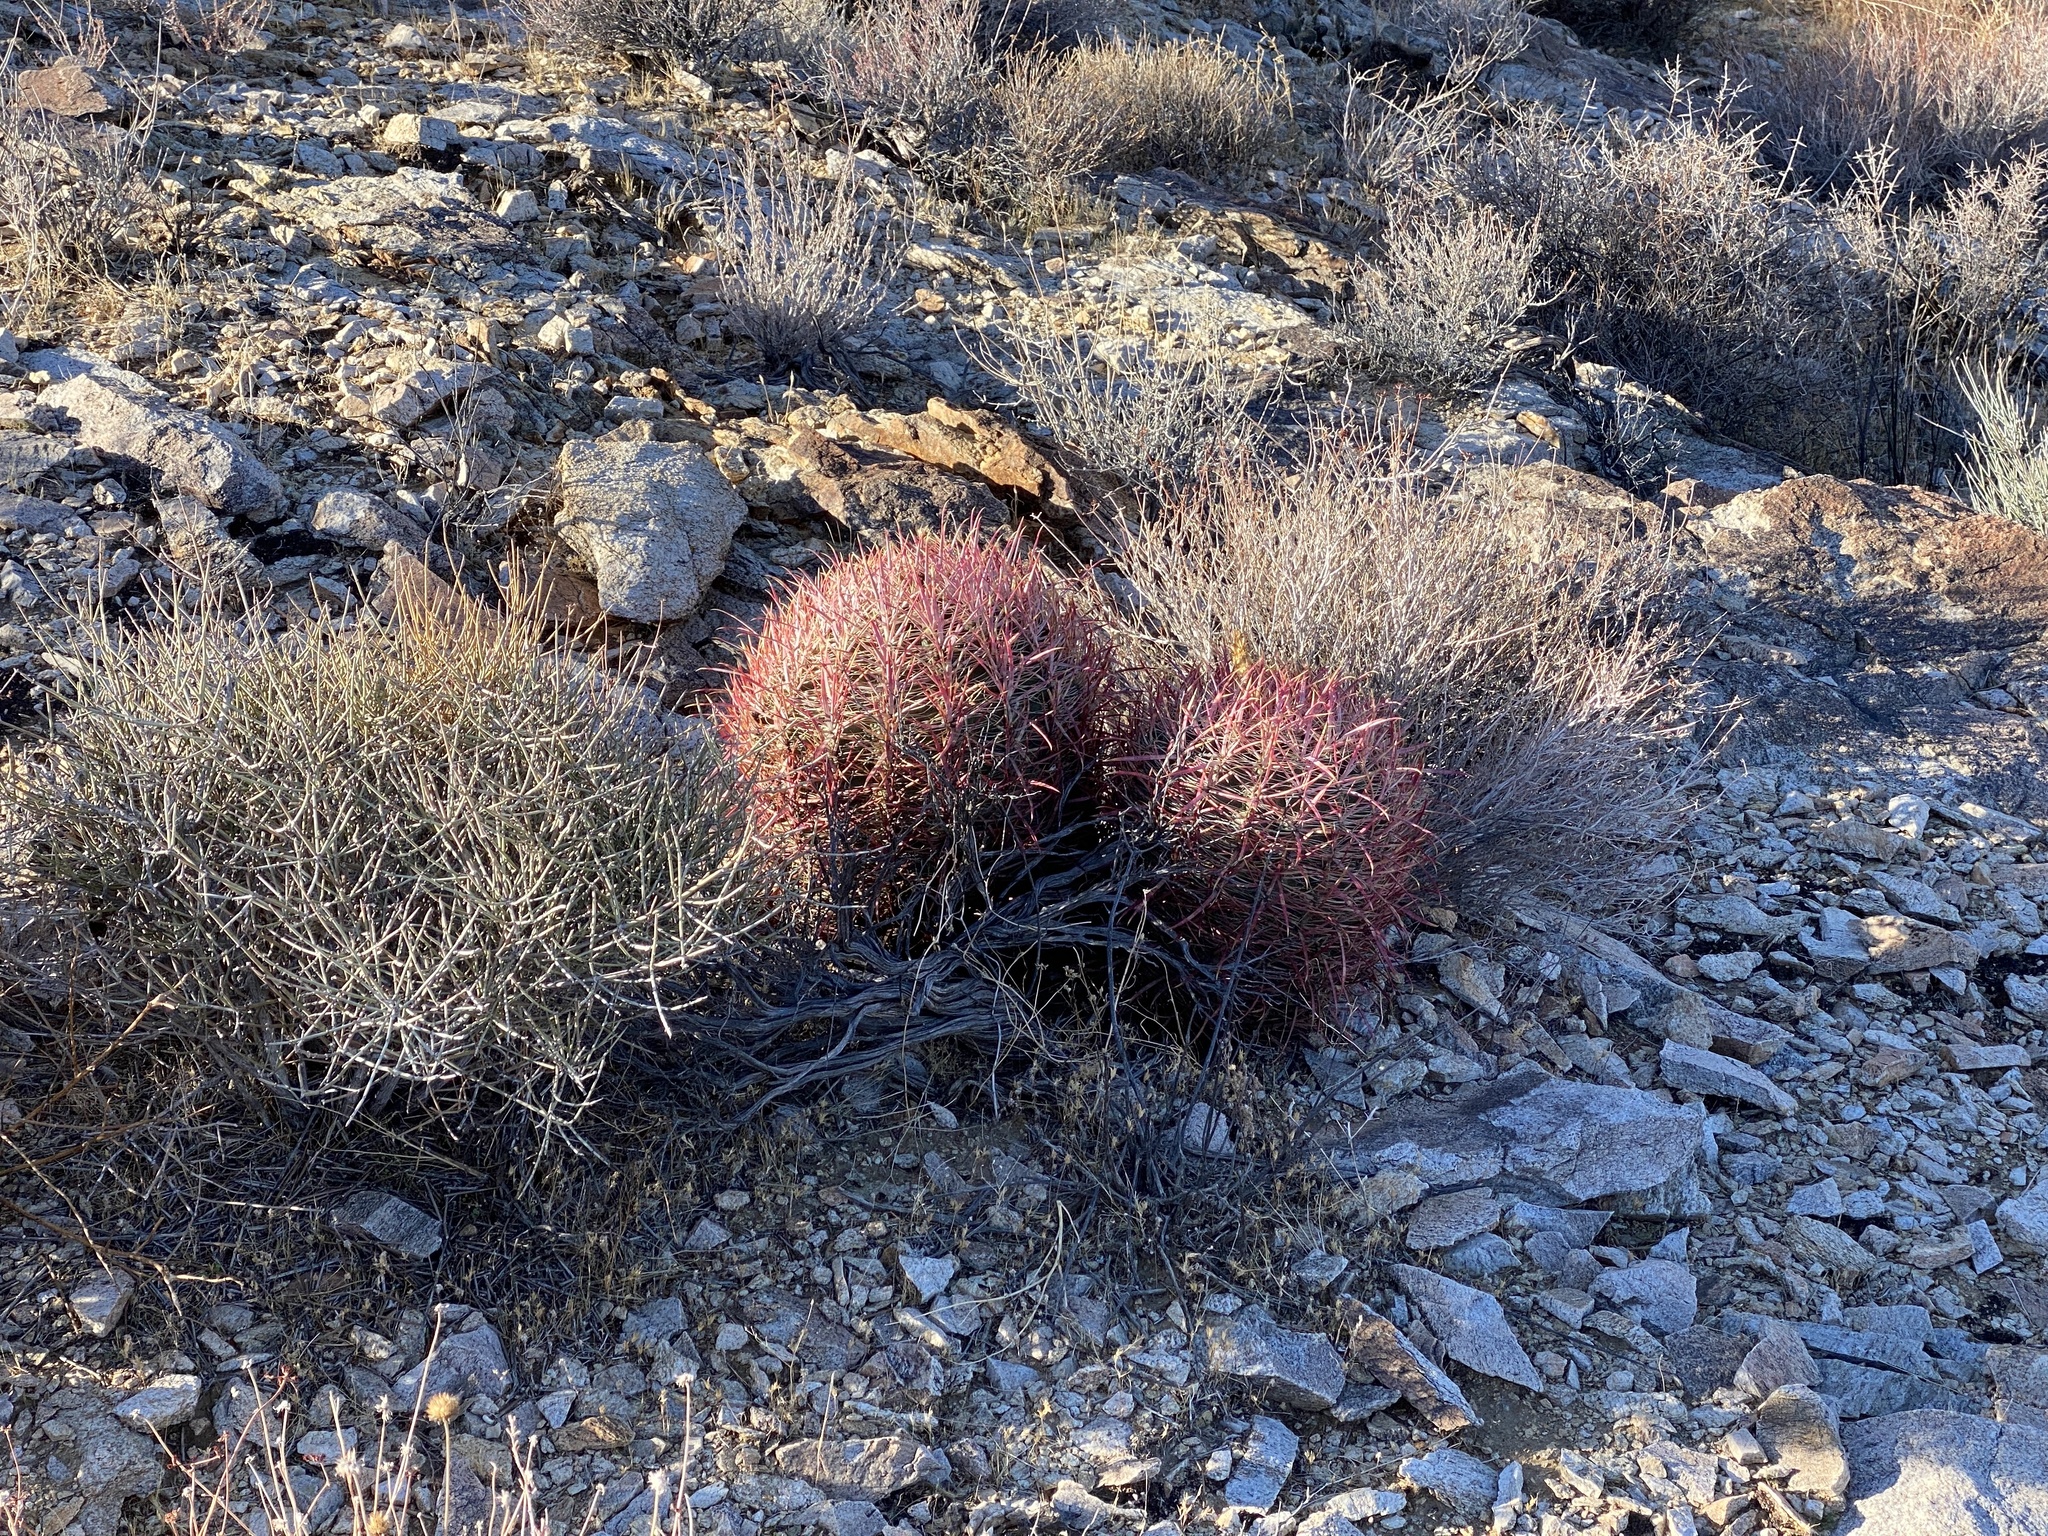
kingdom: Plantae
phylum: Tracheophyta
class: Magnoliopsida
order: Caryophyllales
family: Cactaceae
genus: Ferocactus
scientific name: Ferocactus cylindraceus
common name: California barrel cactus
